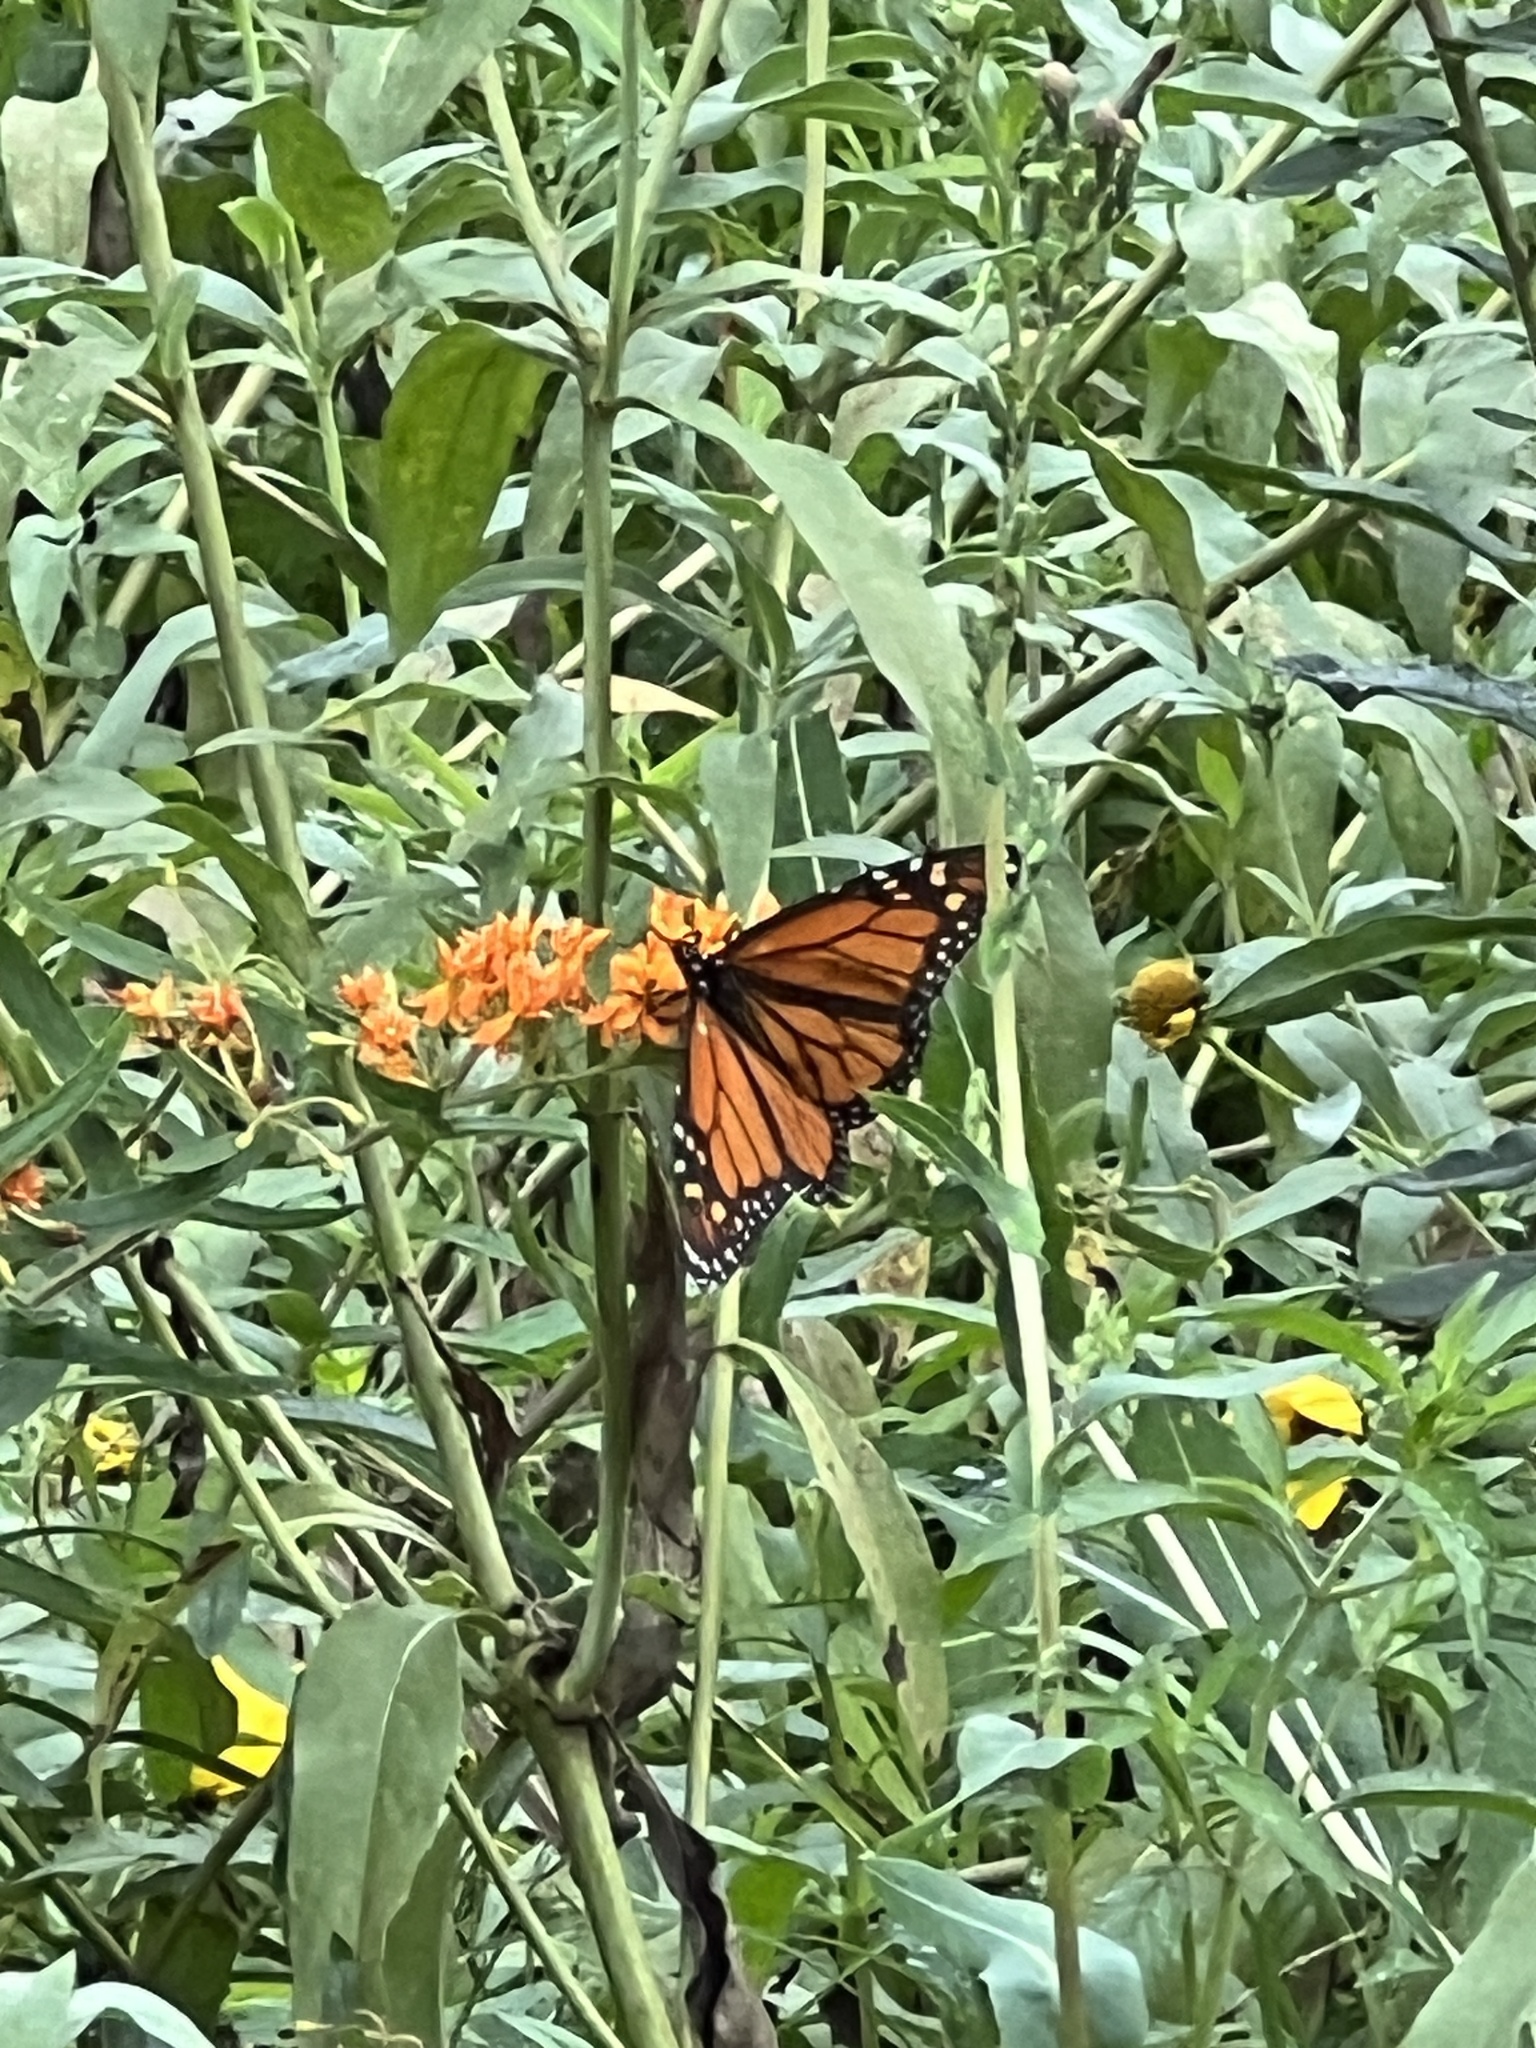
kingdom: Animalia
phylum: Arthropoda
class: Insecta
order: Lepidoptera
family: Nymphalidae
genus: Danaus
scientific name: Danaus plexippus
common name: Monarch
